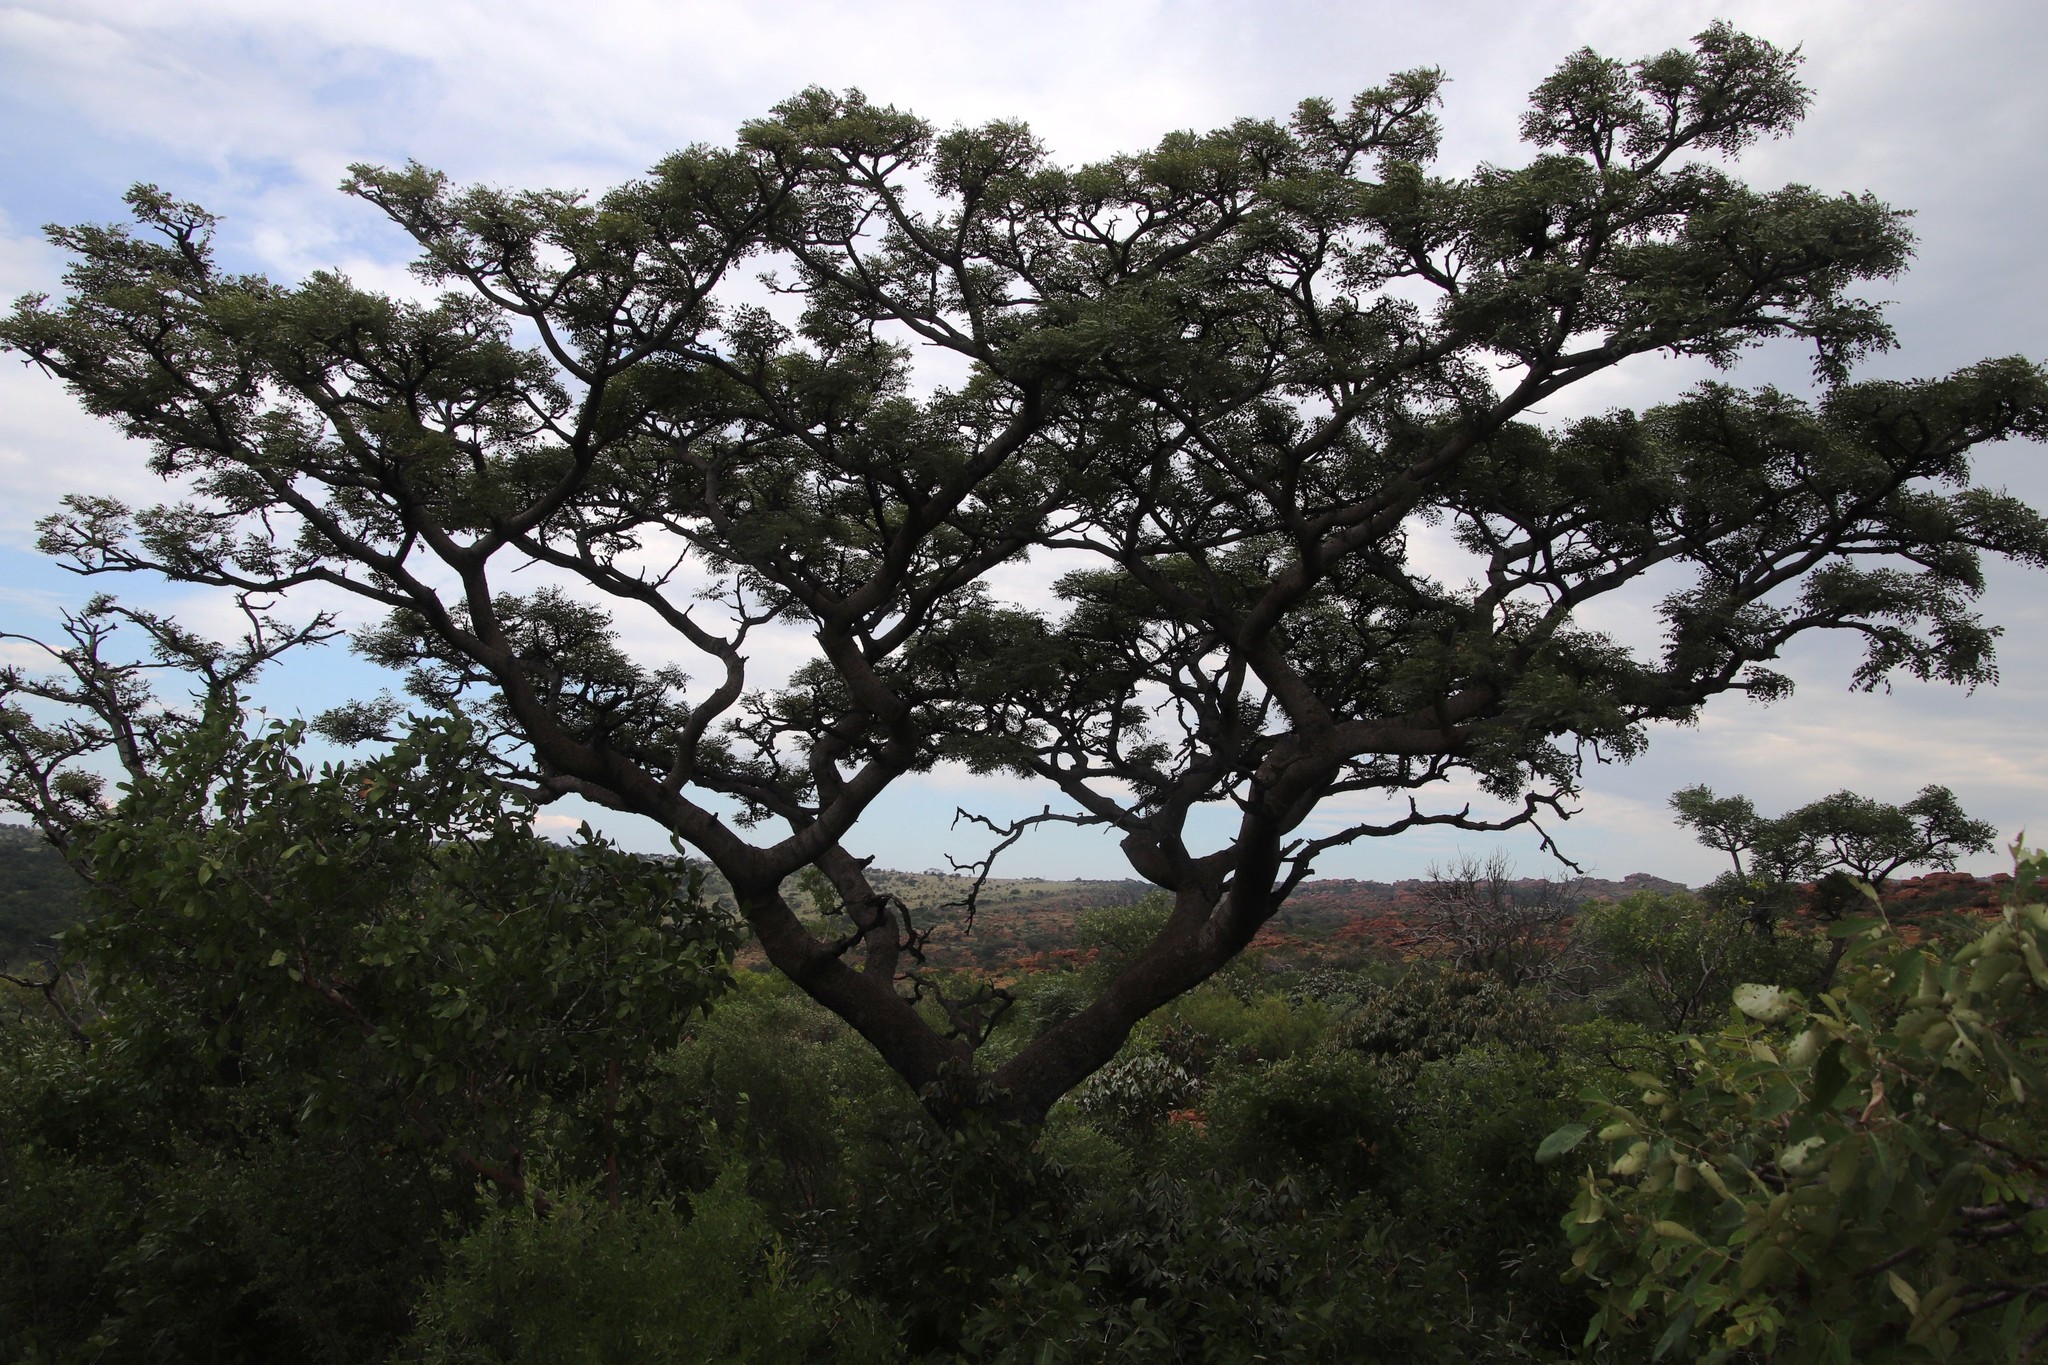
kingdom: Plantae
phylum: Tracheophyta
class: Magnoliopsida
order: Fabales
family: Fabaceae
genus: Burkea
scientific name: Burkea africana
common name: Mkalati tree
